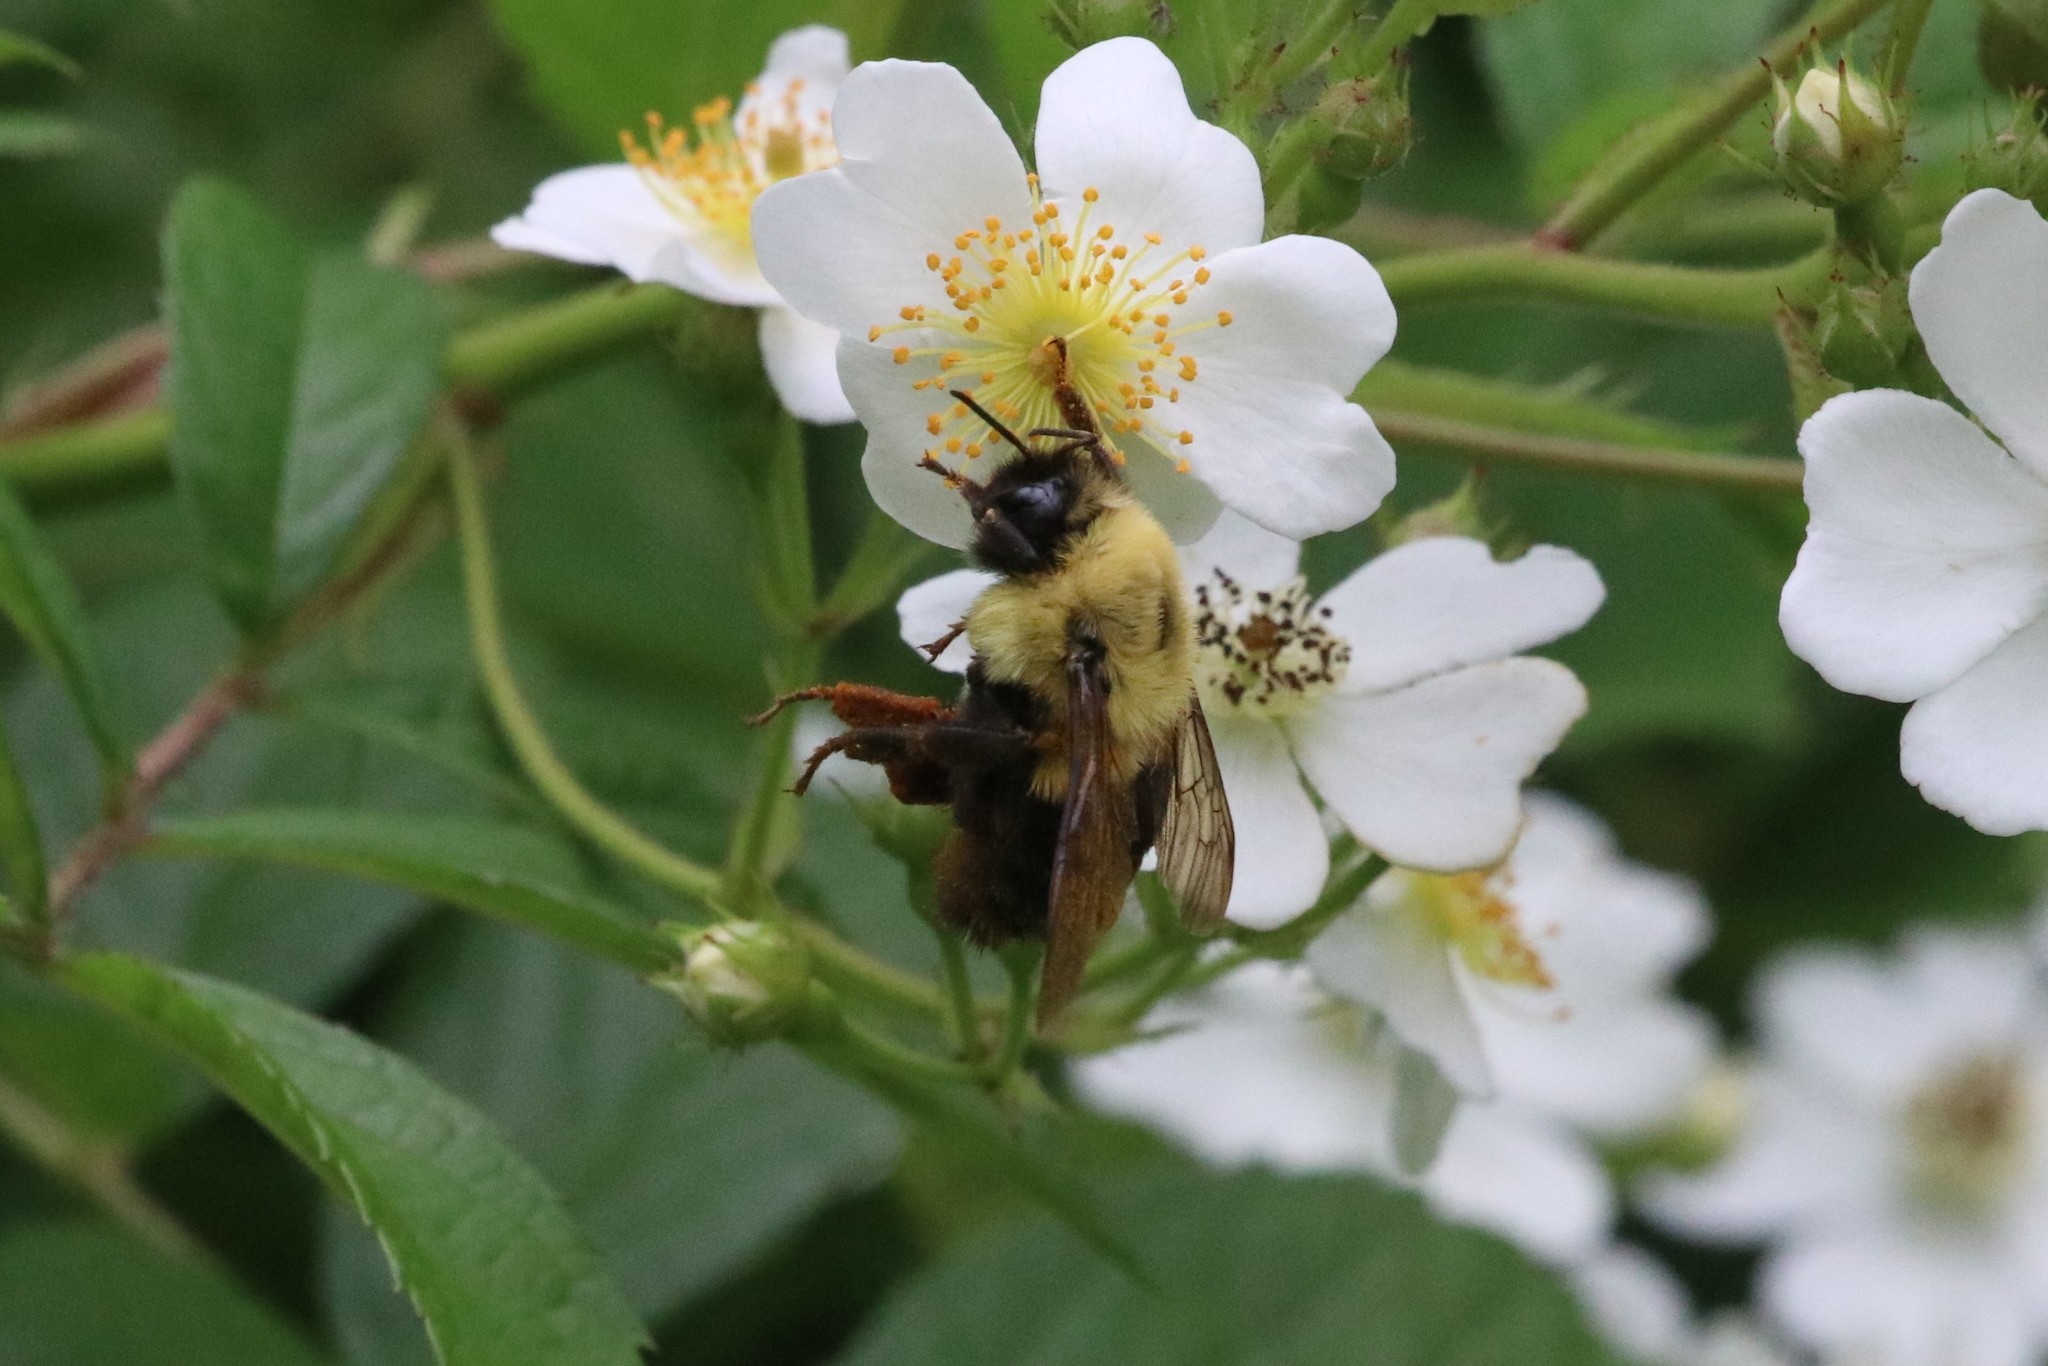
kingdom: Animalia
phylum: Arthropoda
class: Insecta
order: Hymenoptera
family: Apidae
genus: Bombus
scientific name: Bombus impatiens
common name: Common eastern bumble bee
